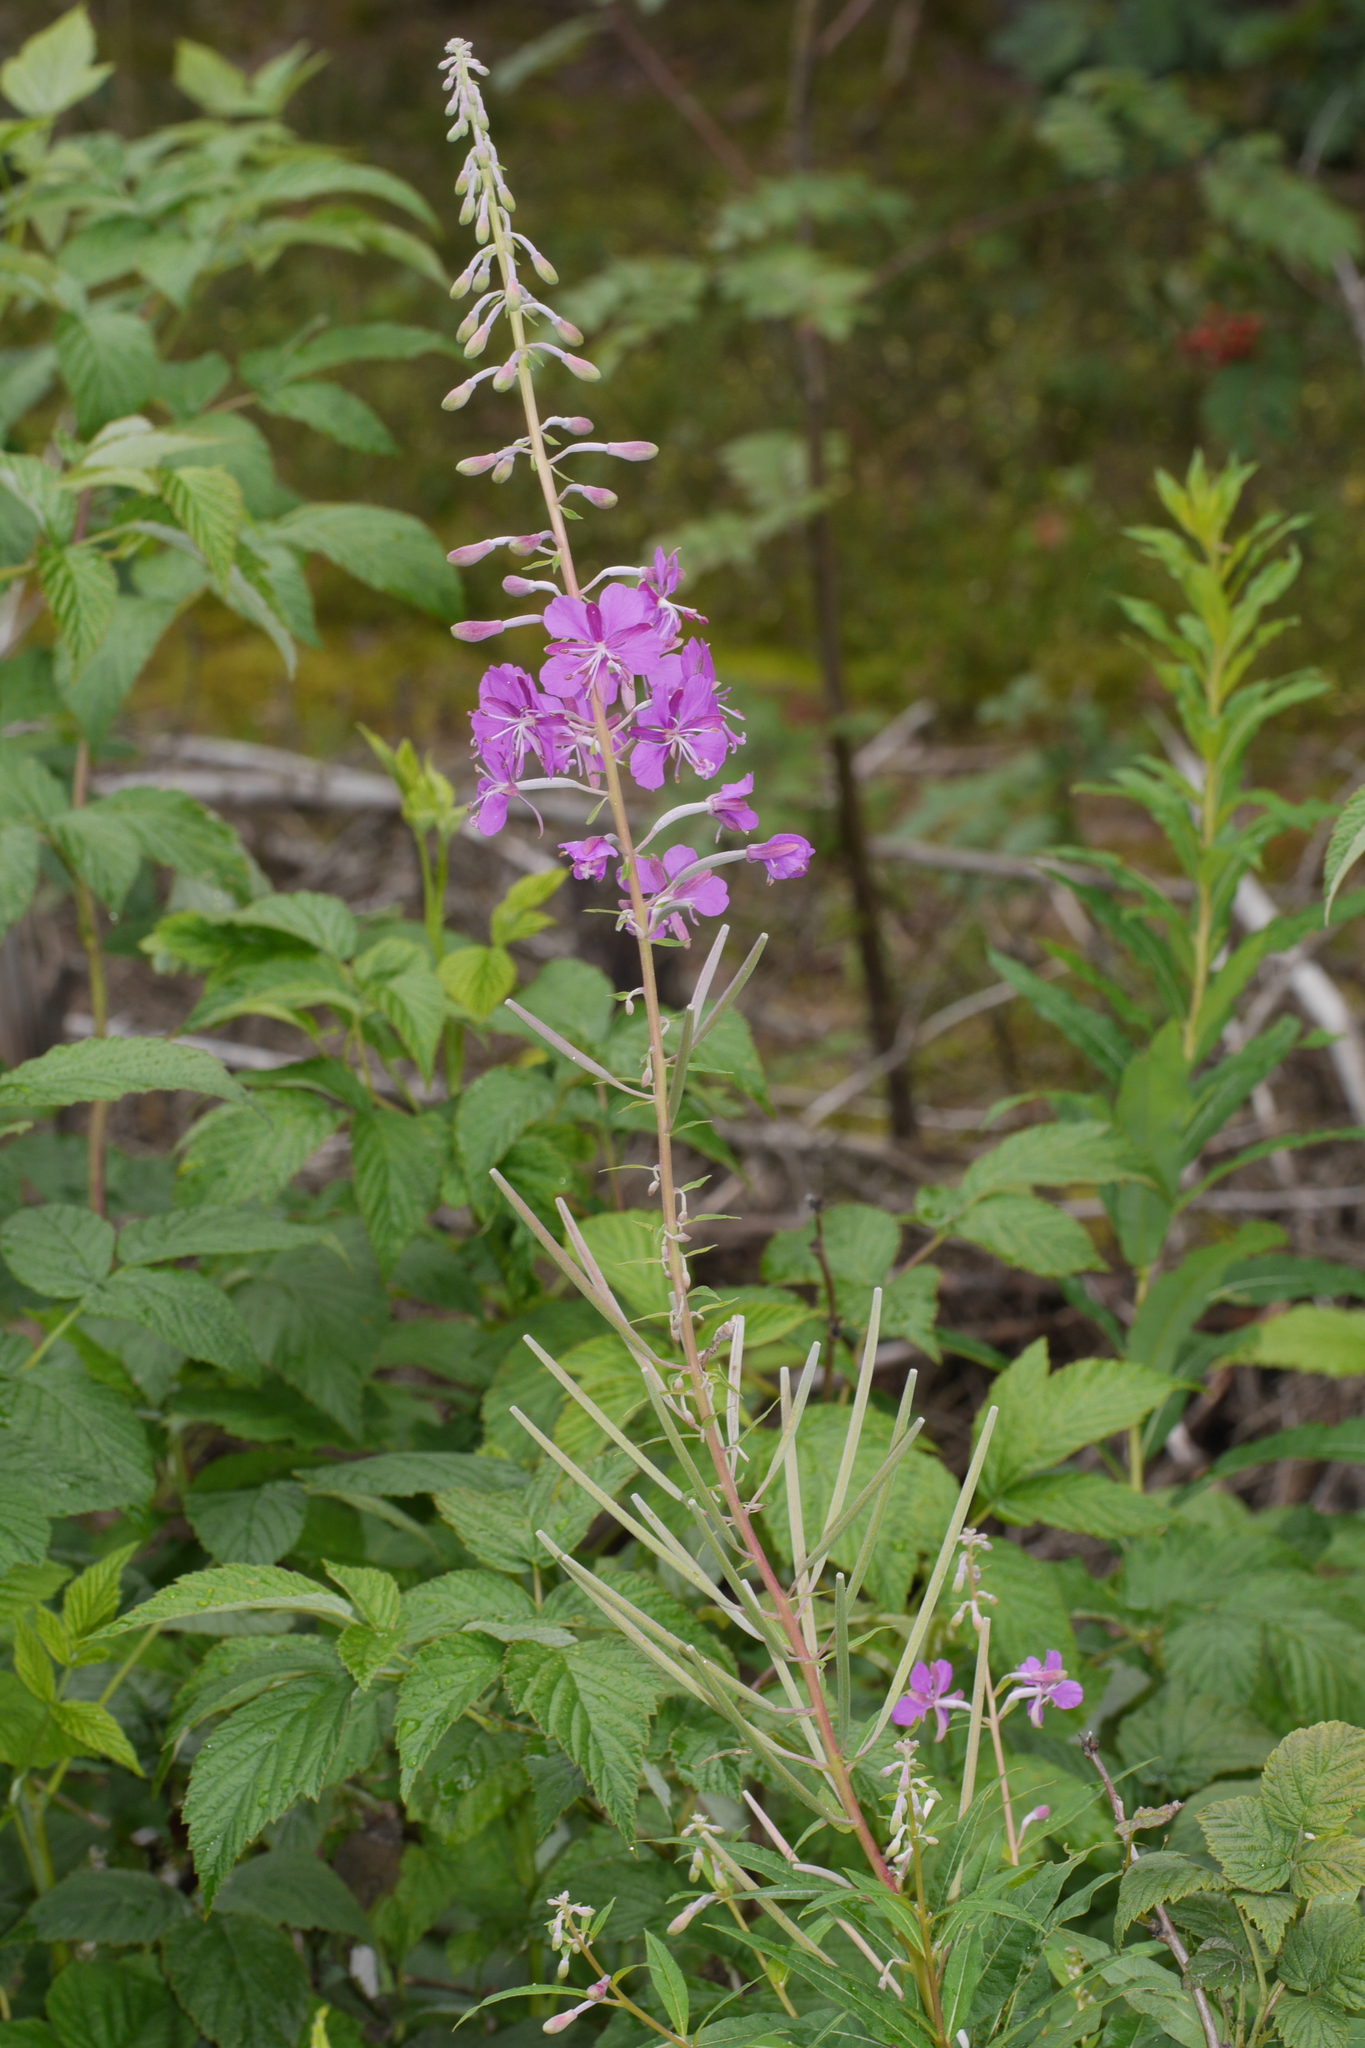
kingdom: Plantae
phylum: Tracheophyta
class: Magnoliopsida
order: Myrtales
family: Onagraceae
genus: Chamaenerion
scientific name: Chamaenerion angustifolium
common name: Fireweed
